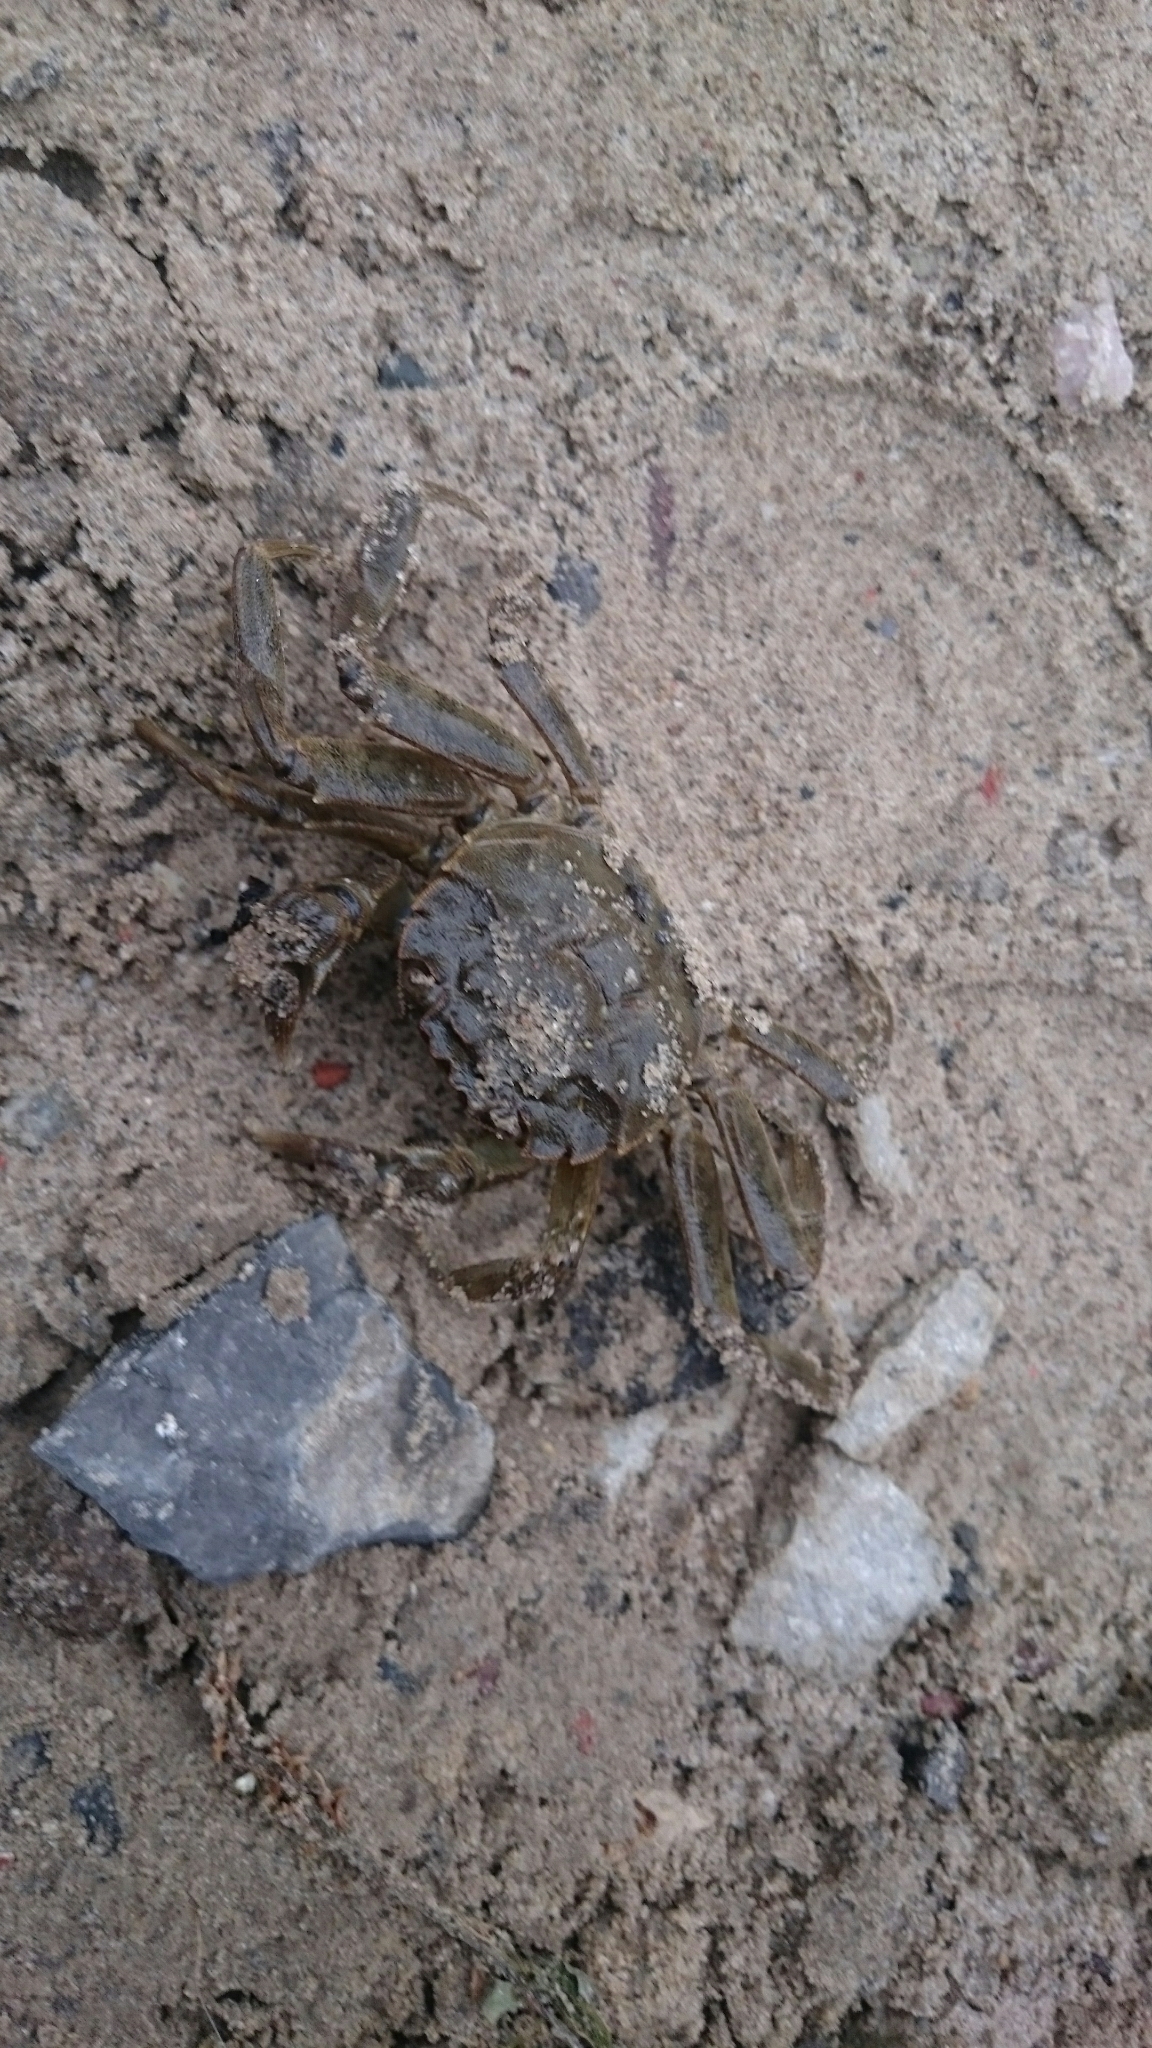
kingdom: Animalia
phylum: Arthropoda
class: Malacostraca
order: Decapoda
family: Varunidae
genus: Eriocheir
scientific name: Eriocheir sinensis
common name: Chinese mitten crab
